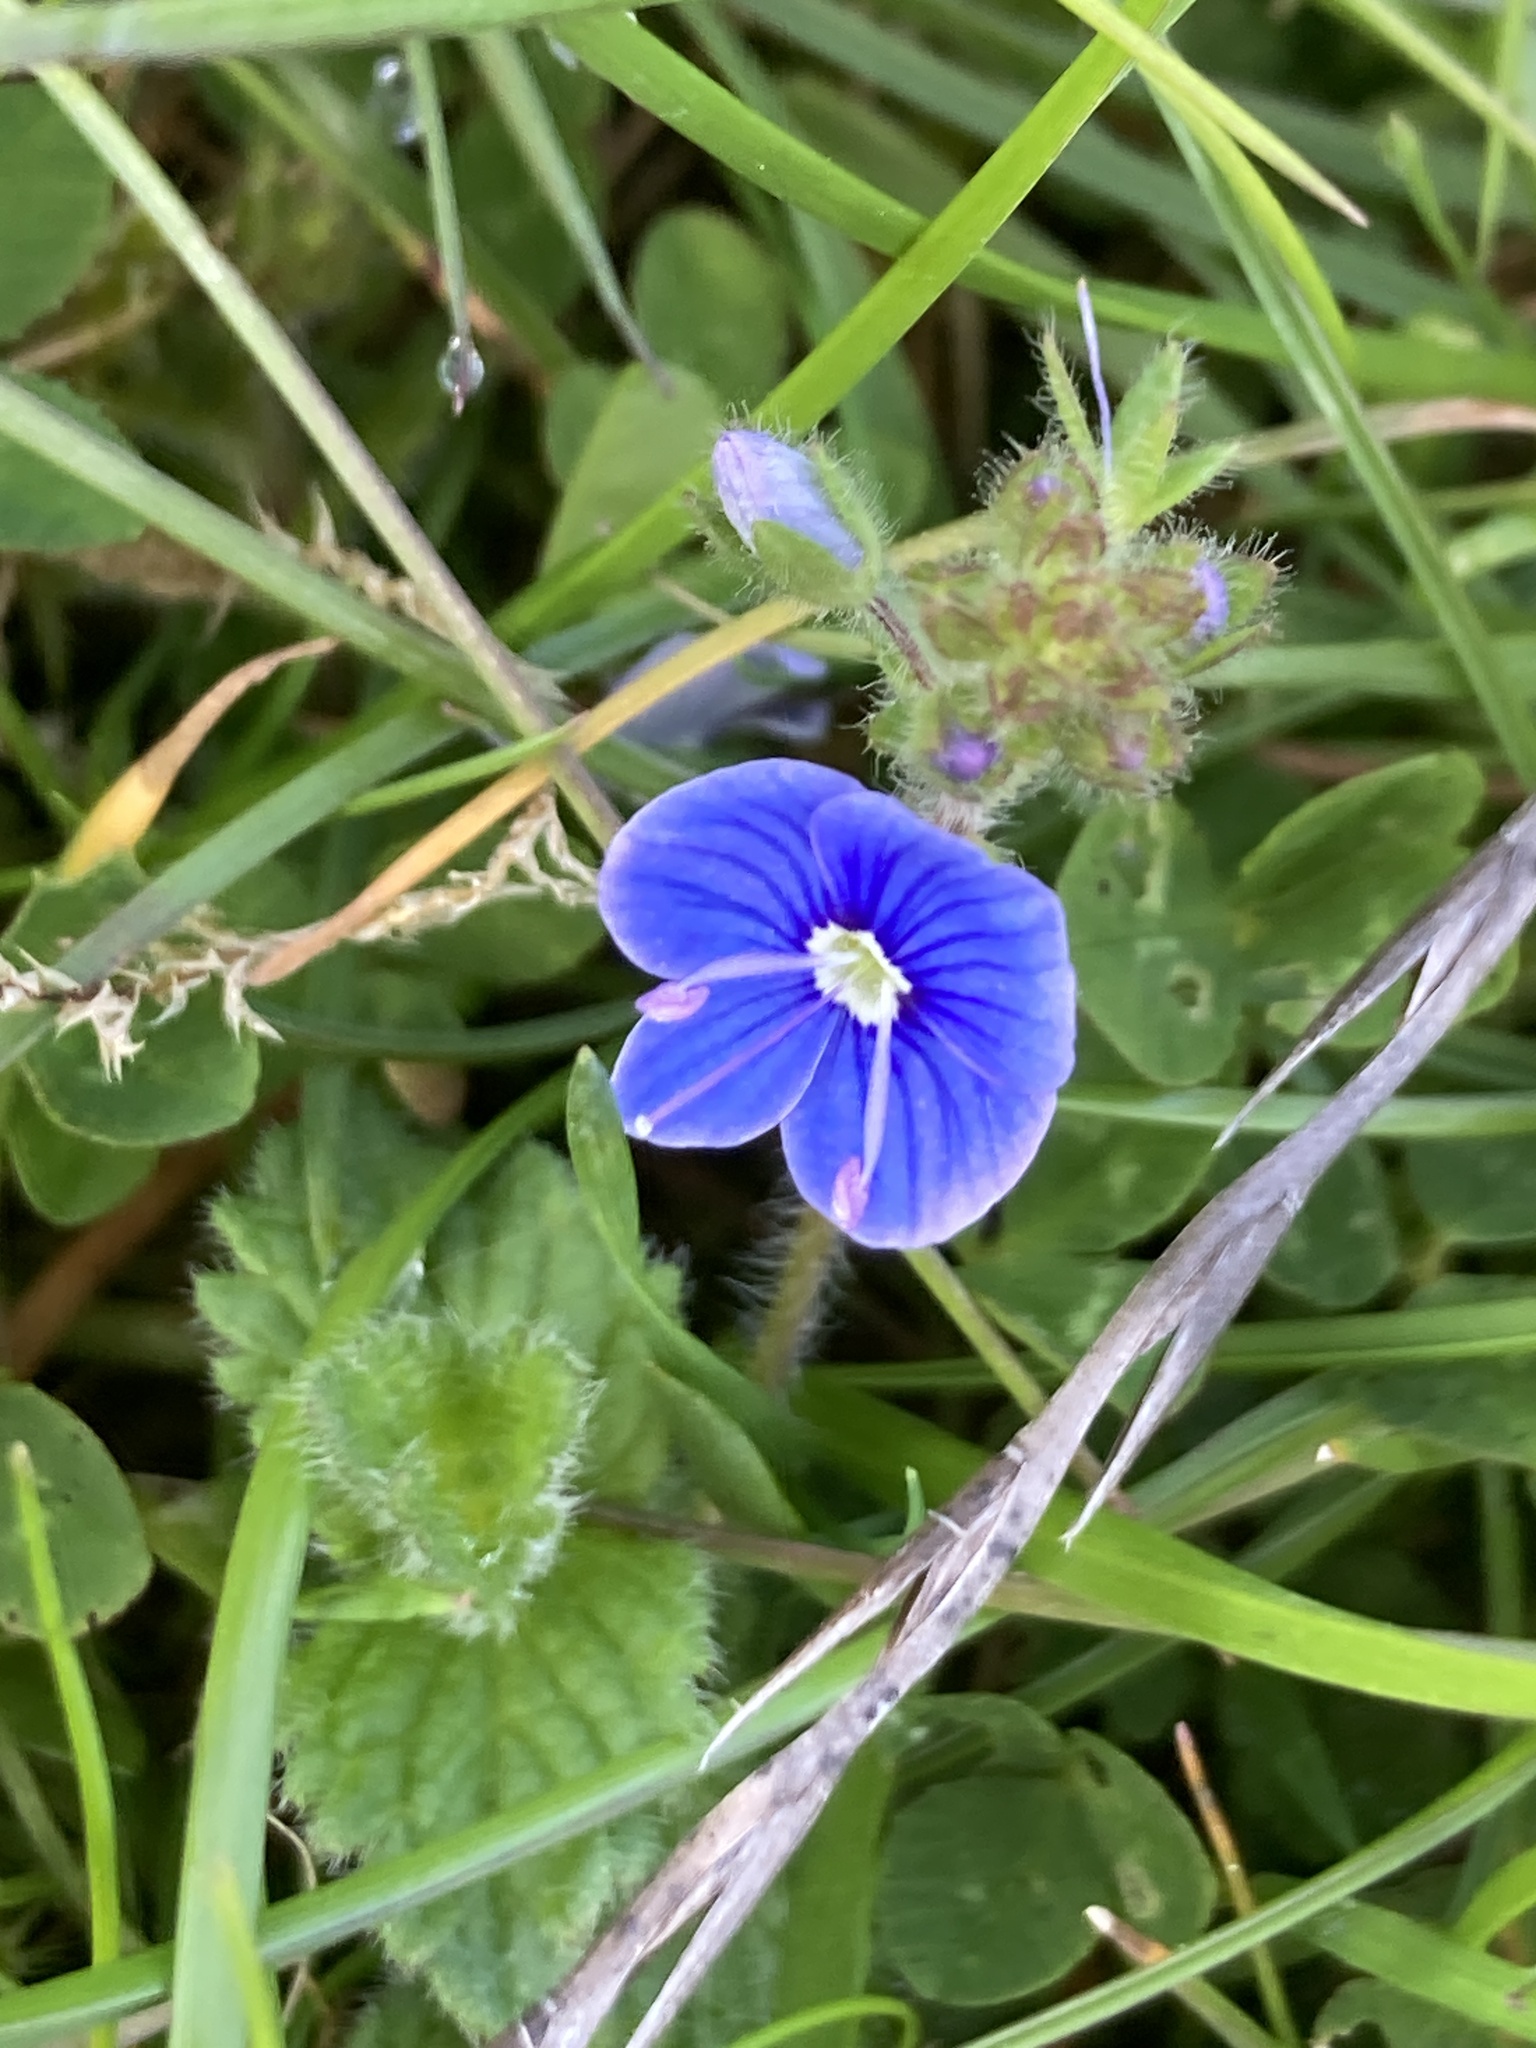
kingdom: Plantae
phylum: Tracheophyta
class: Magnoliopsida
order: Lamiales
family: Plantaginaceae
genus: Veronica
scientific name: Veronica chamaedrys
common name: Germander speedwell
